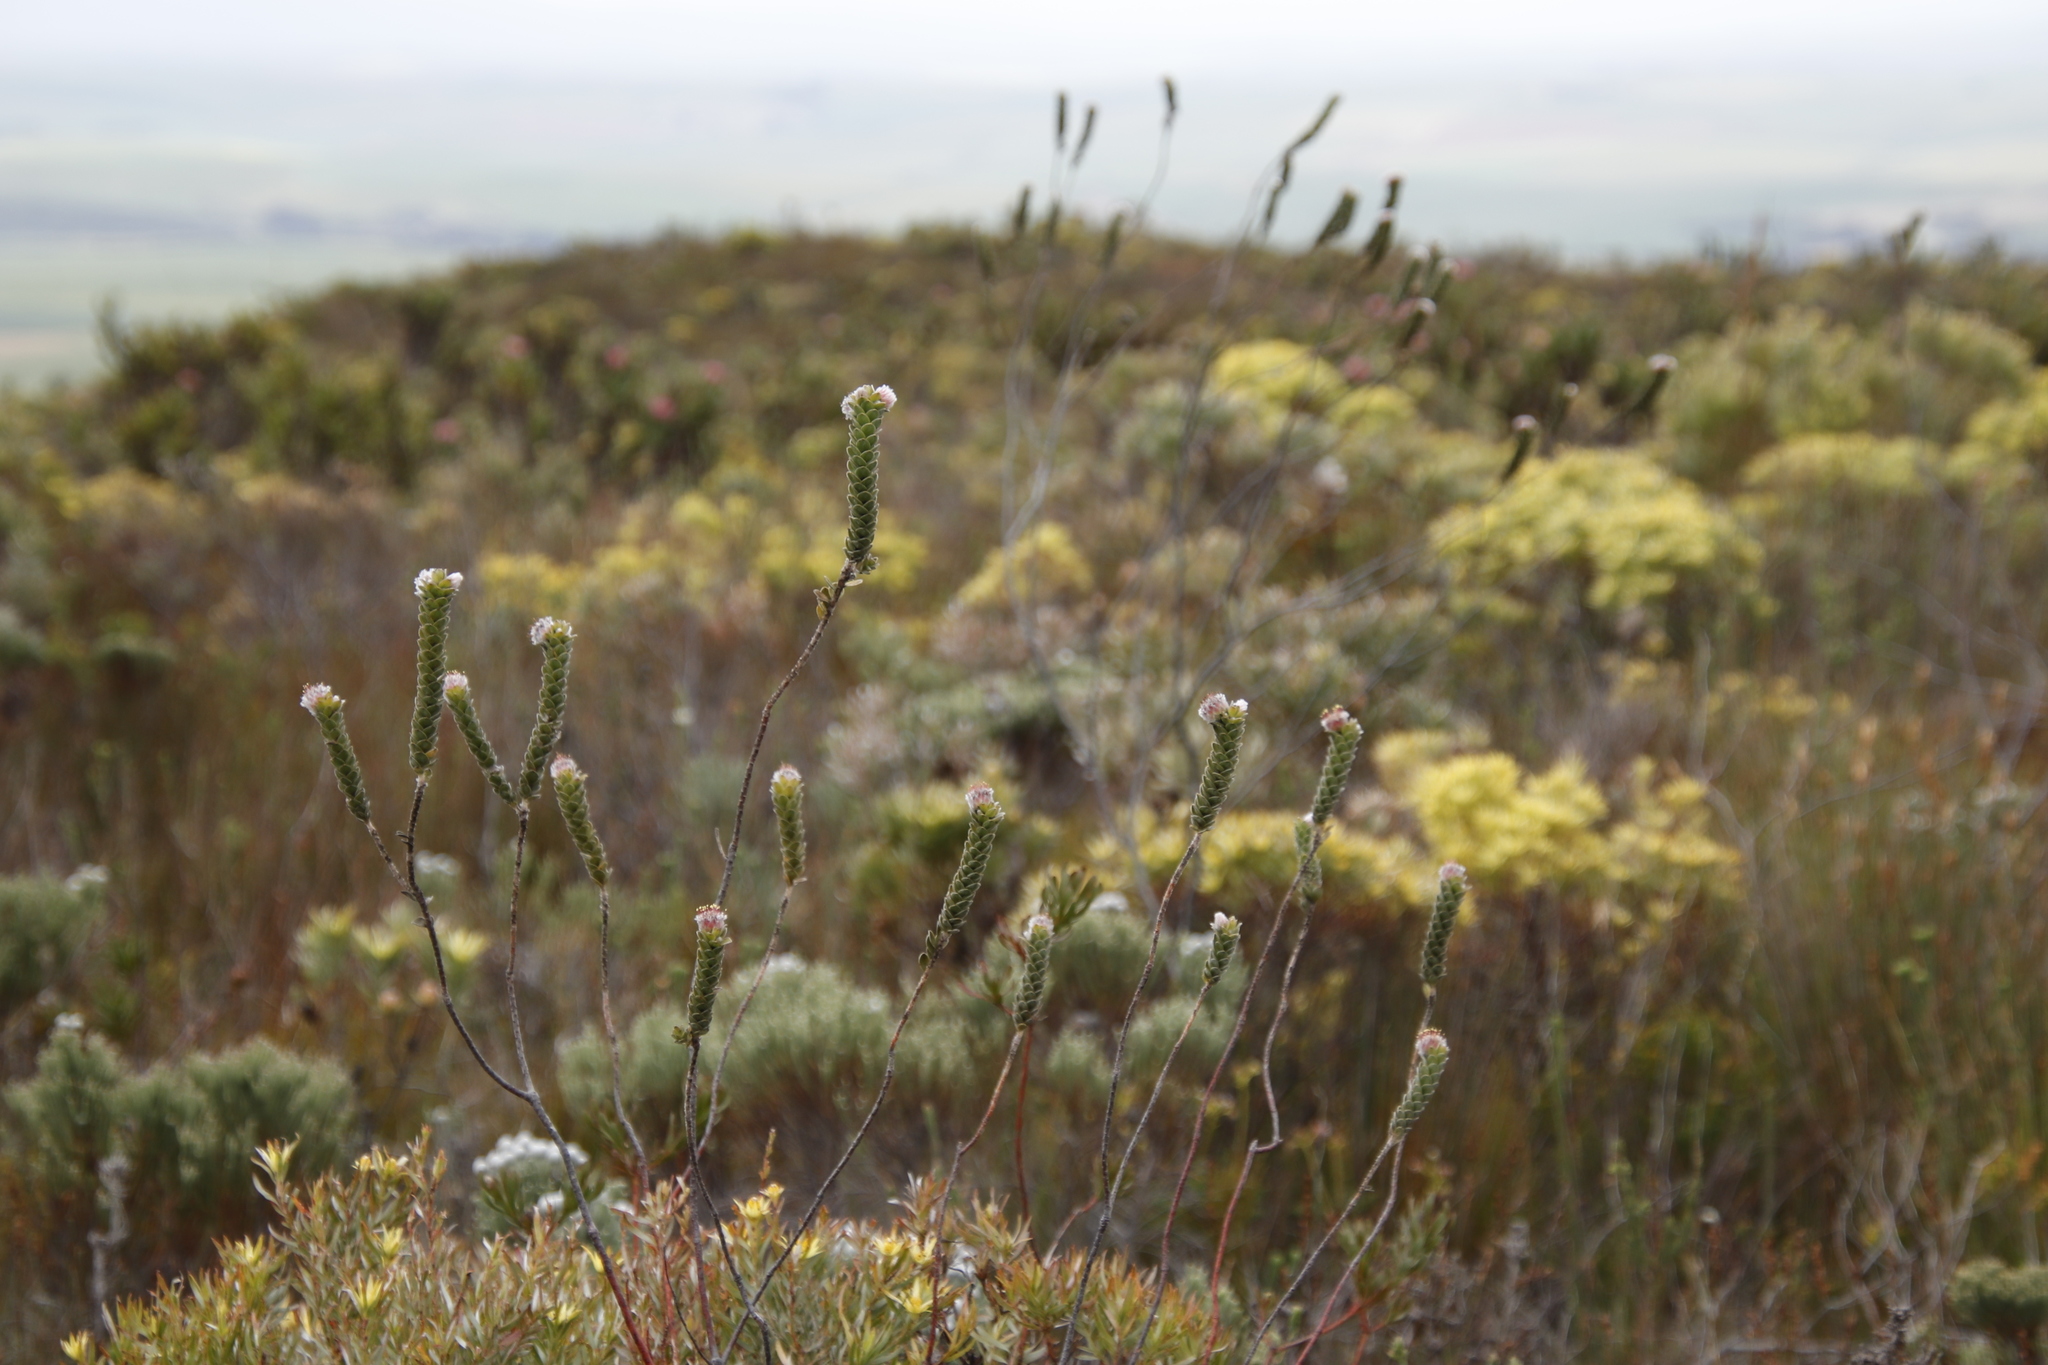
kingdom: Plantae
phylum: Tracheophyta
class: Magnoliopsida
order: Proteales
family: Proteaceae
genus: Leucospermum
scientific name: Leucospermum truncatulum
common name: Oval-leaf pincushion
